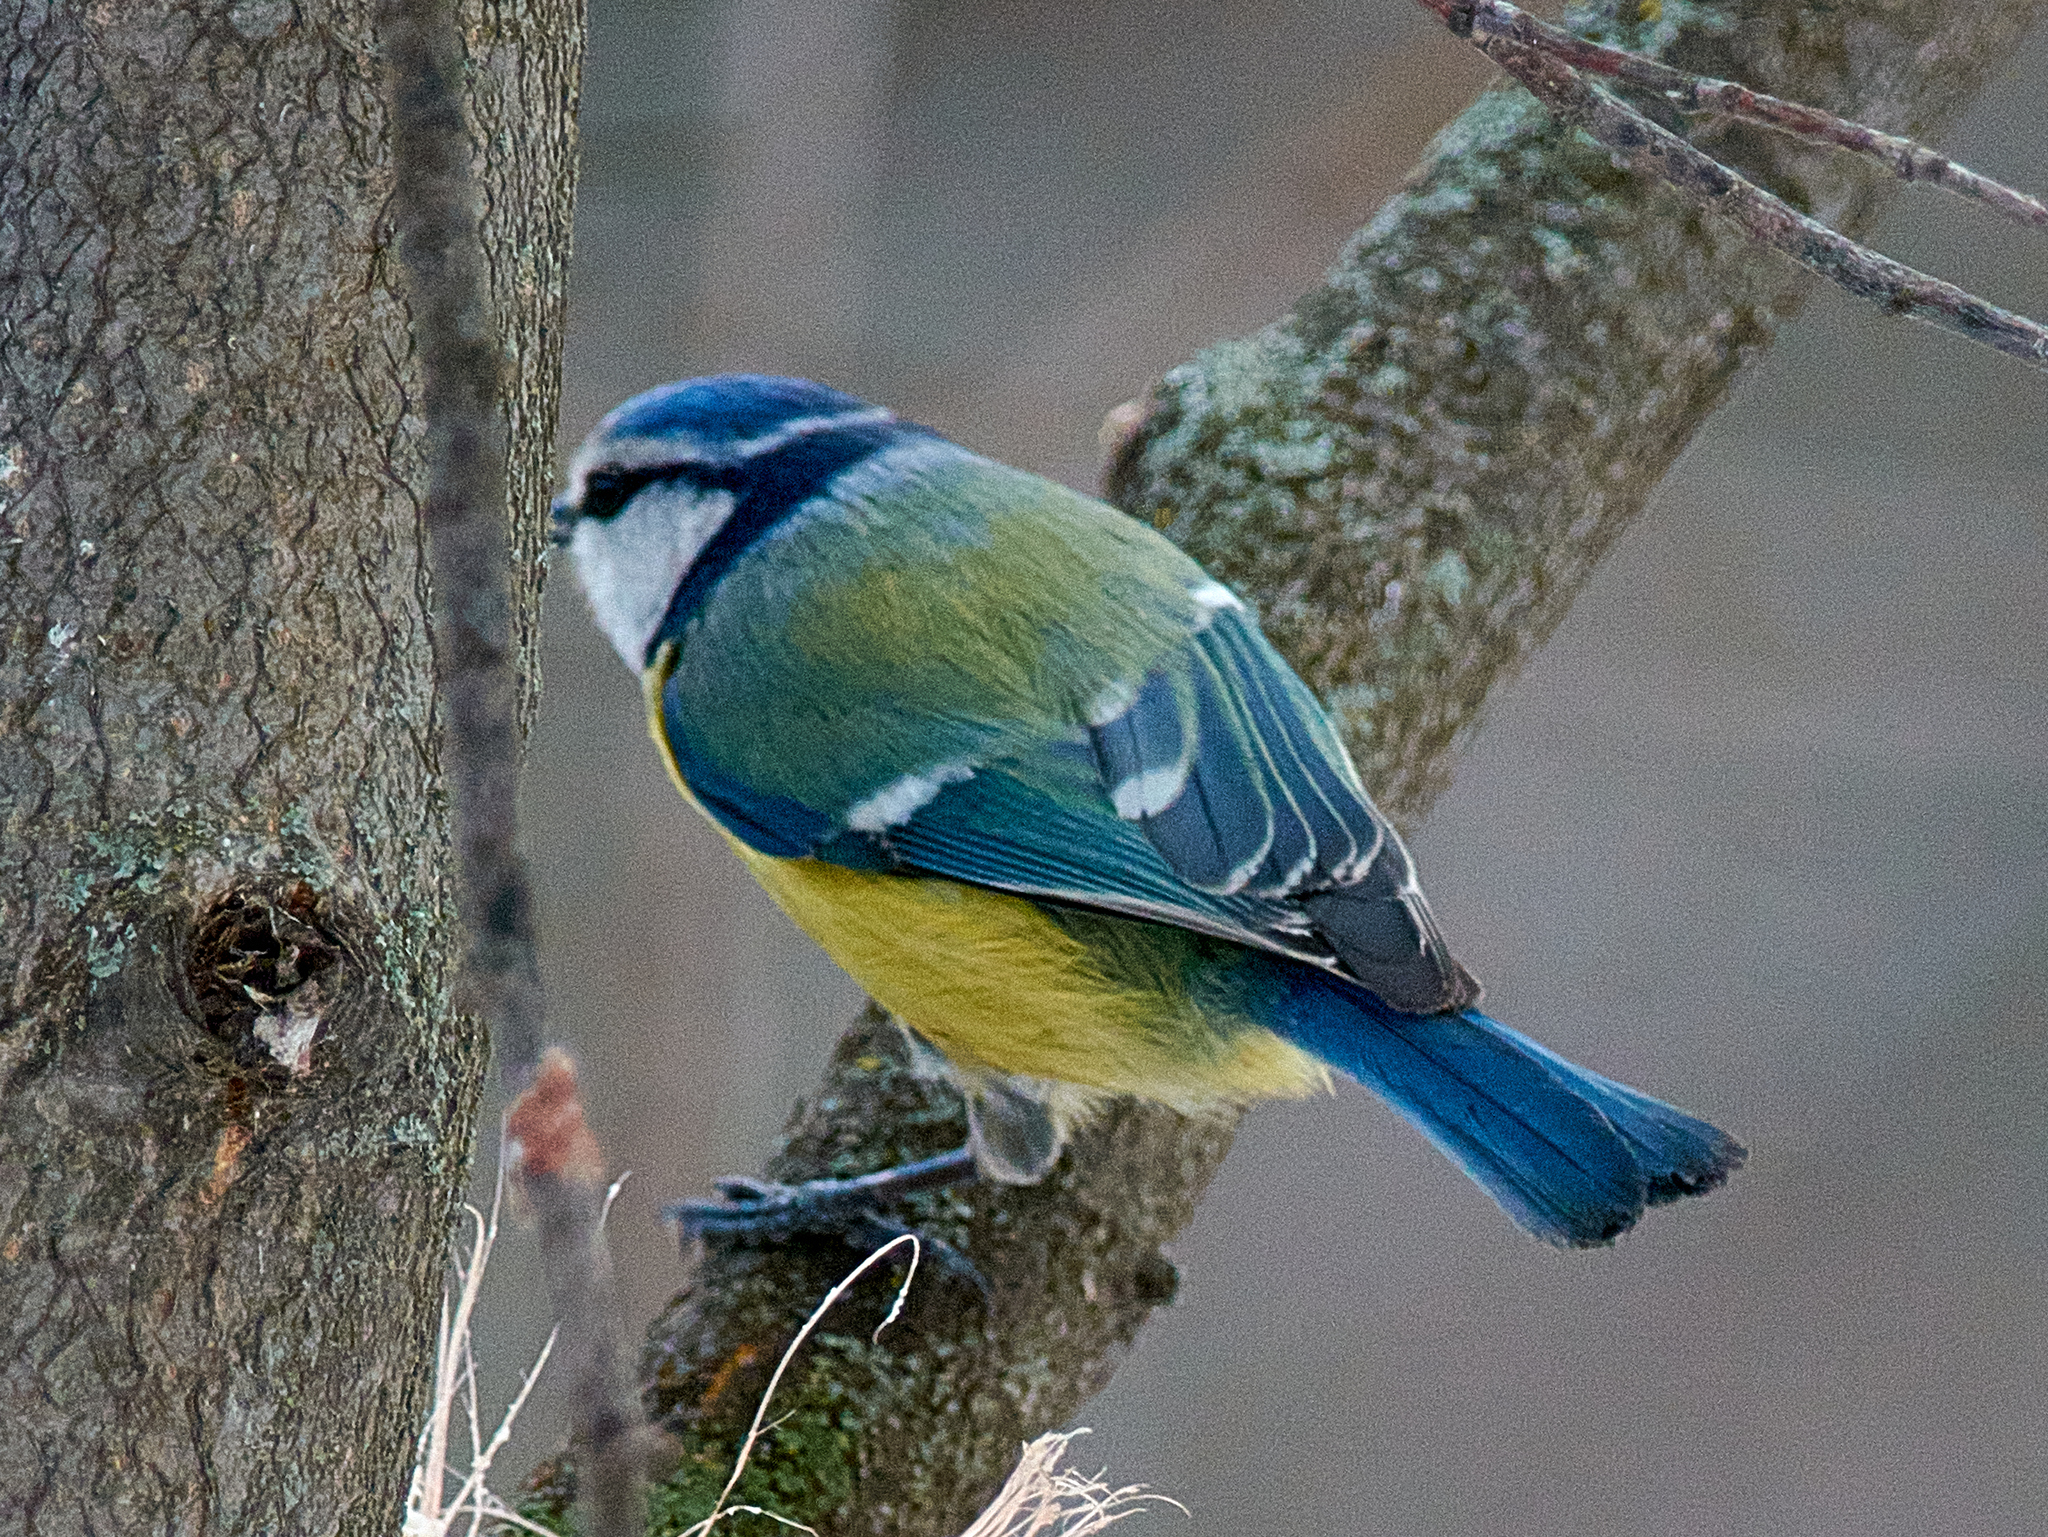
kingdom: Animalia
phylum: Chordata
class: Aves
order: Passeriformes
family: Paridae
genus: Cyanistes
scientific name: Cyanistes caeruleus
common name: Eurasian blue tit
